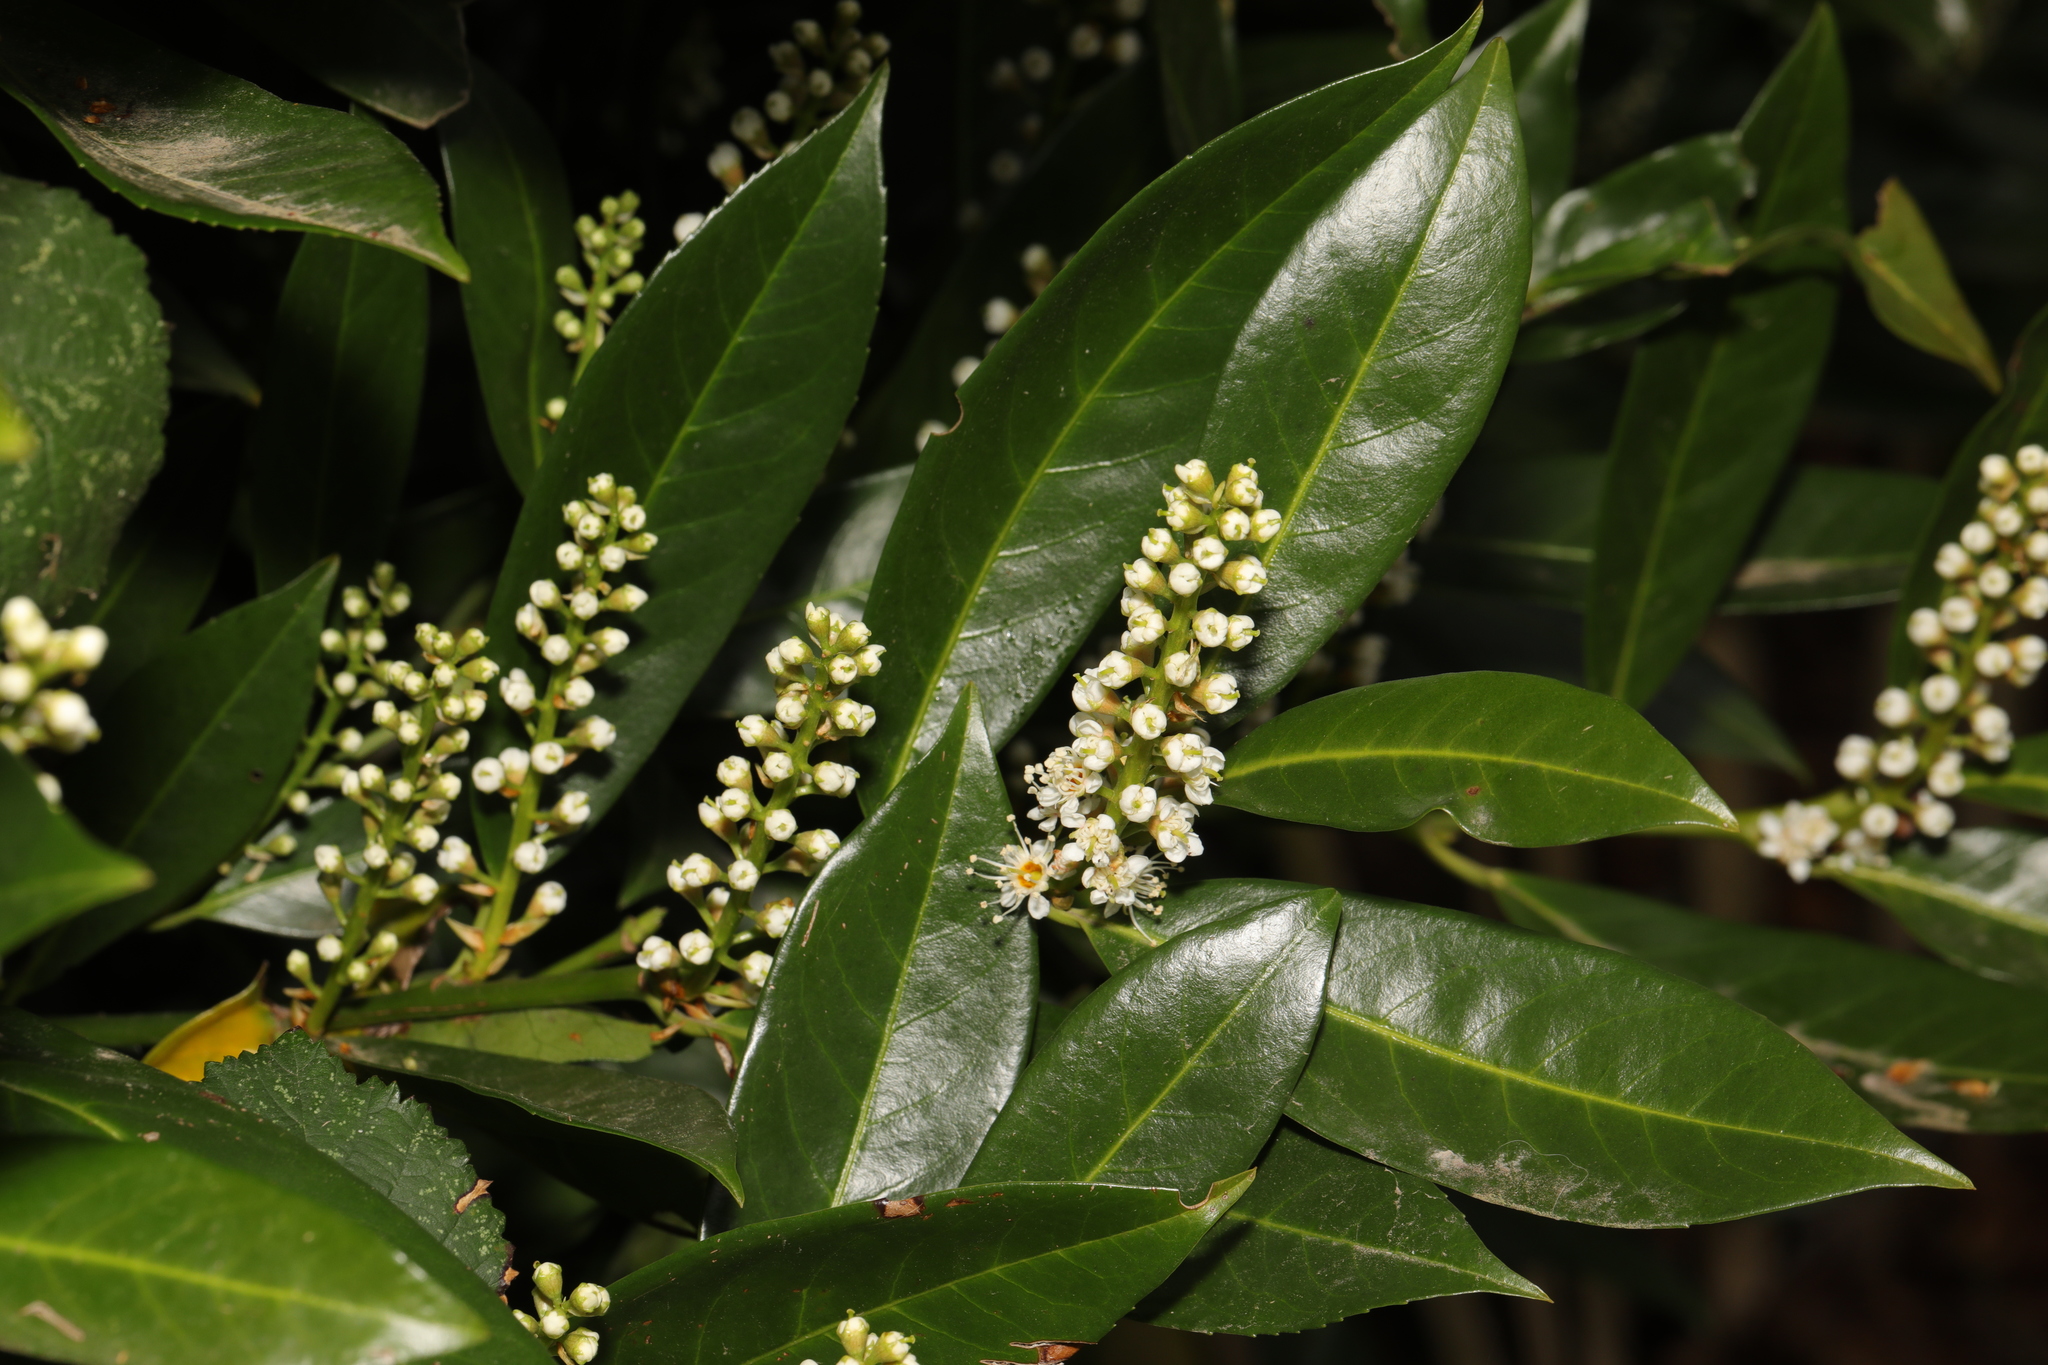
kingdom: Plantae
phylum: Tracheophyta
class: Magnoliopsida
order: Rosales
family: Rosaceae
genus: Prunus
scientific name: Prunus laurocerasus
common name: Cherry laurel
